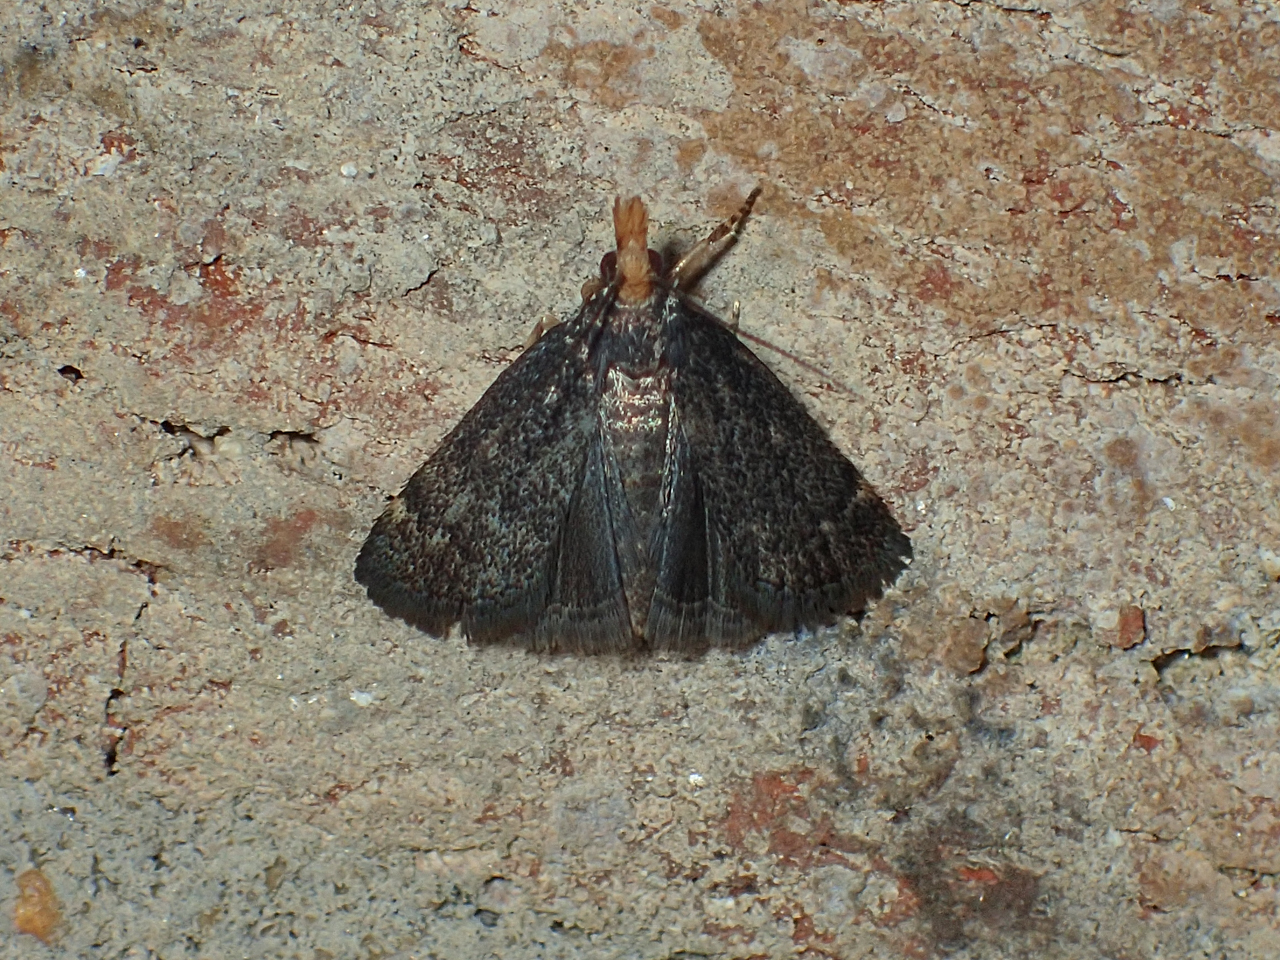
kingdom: Animalia
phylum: Arthropoda
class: Insecta
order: Lepidoptera
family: Crambidae
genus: Pyrausta
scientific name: Pyrausta merrickalis
